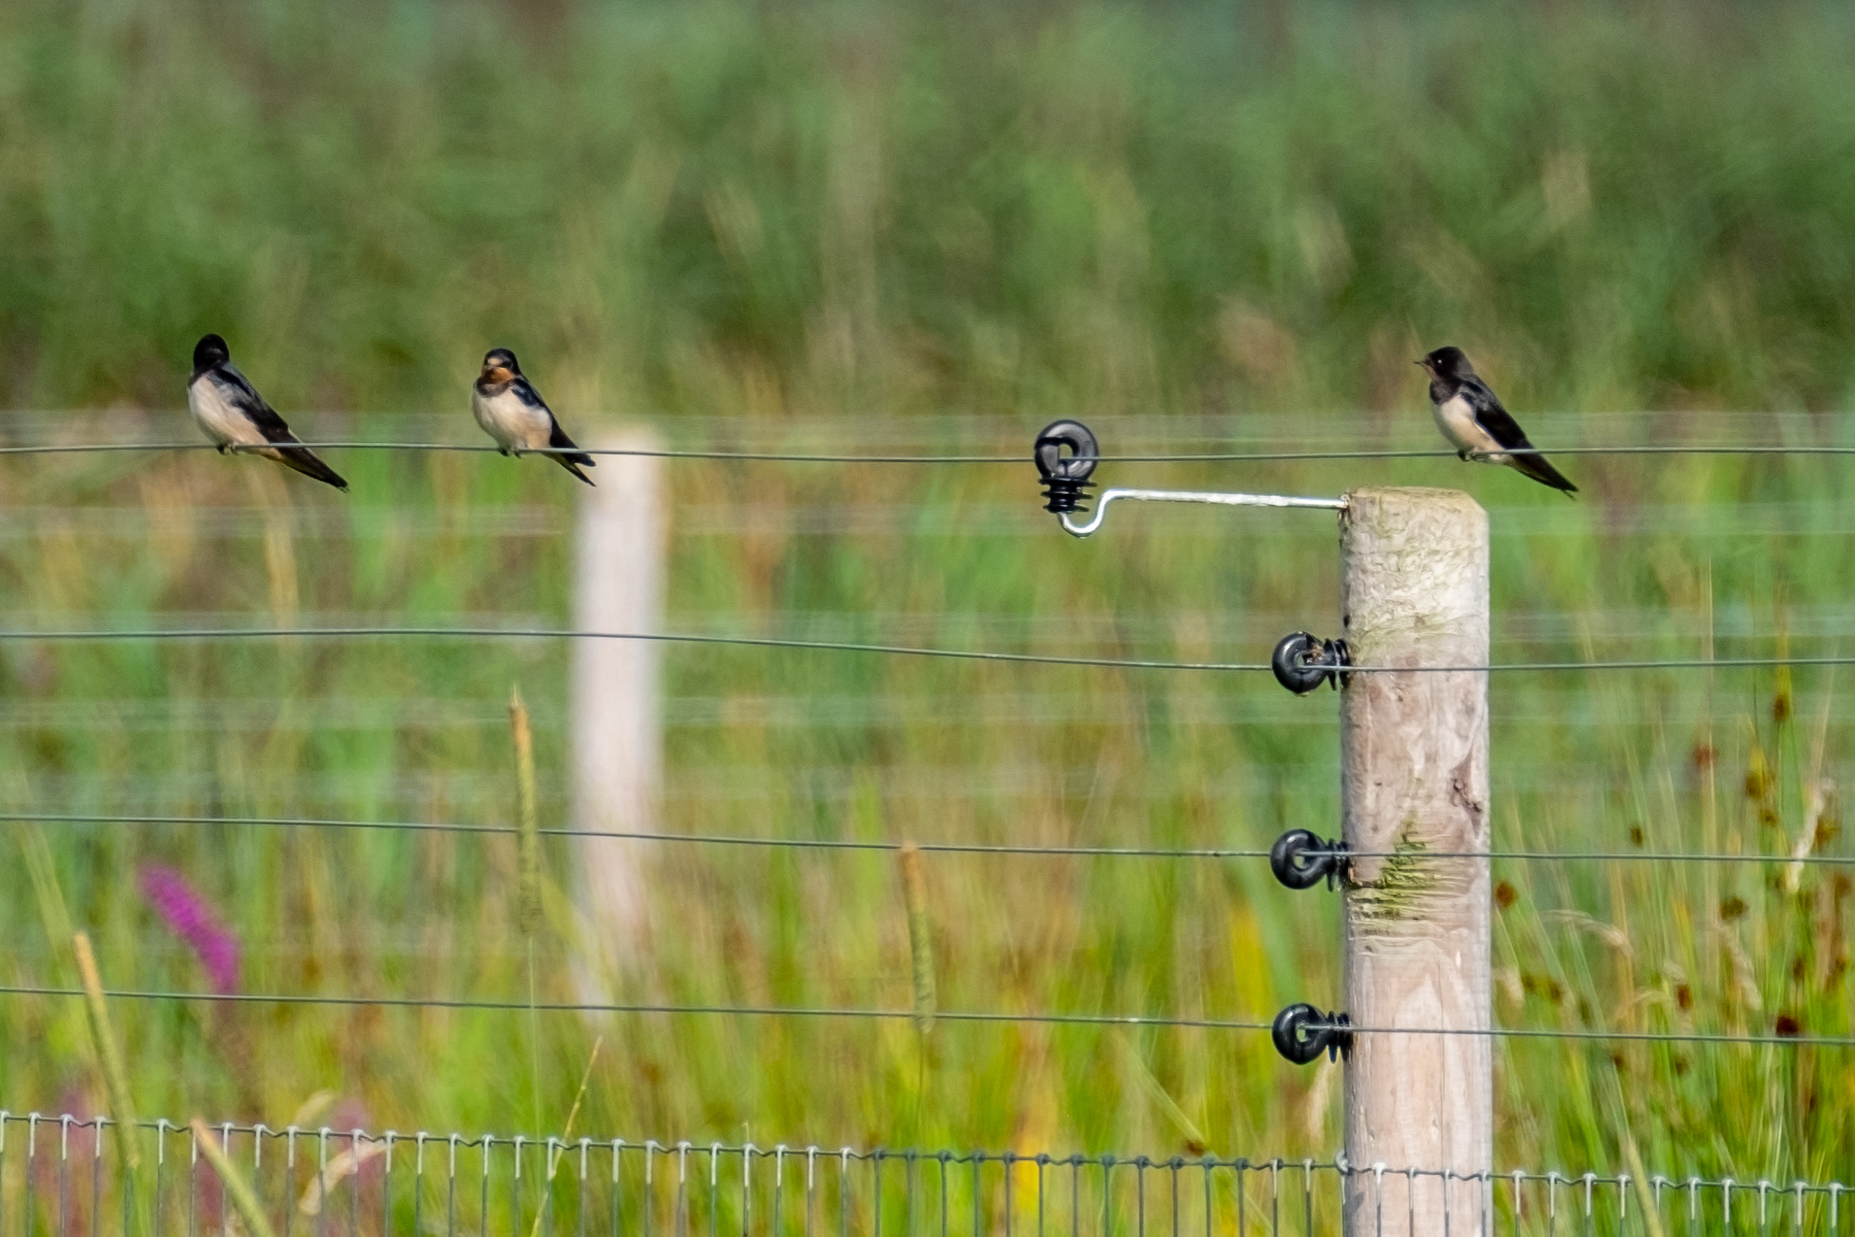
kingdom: Animalia
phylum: Chordata
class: Aves
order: Passeriformes
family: Hirundinidae
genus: Hirundo
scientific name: Hirundo rustica
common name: Barn swallow
